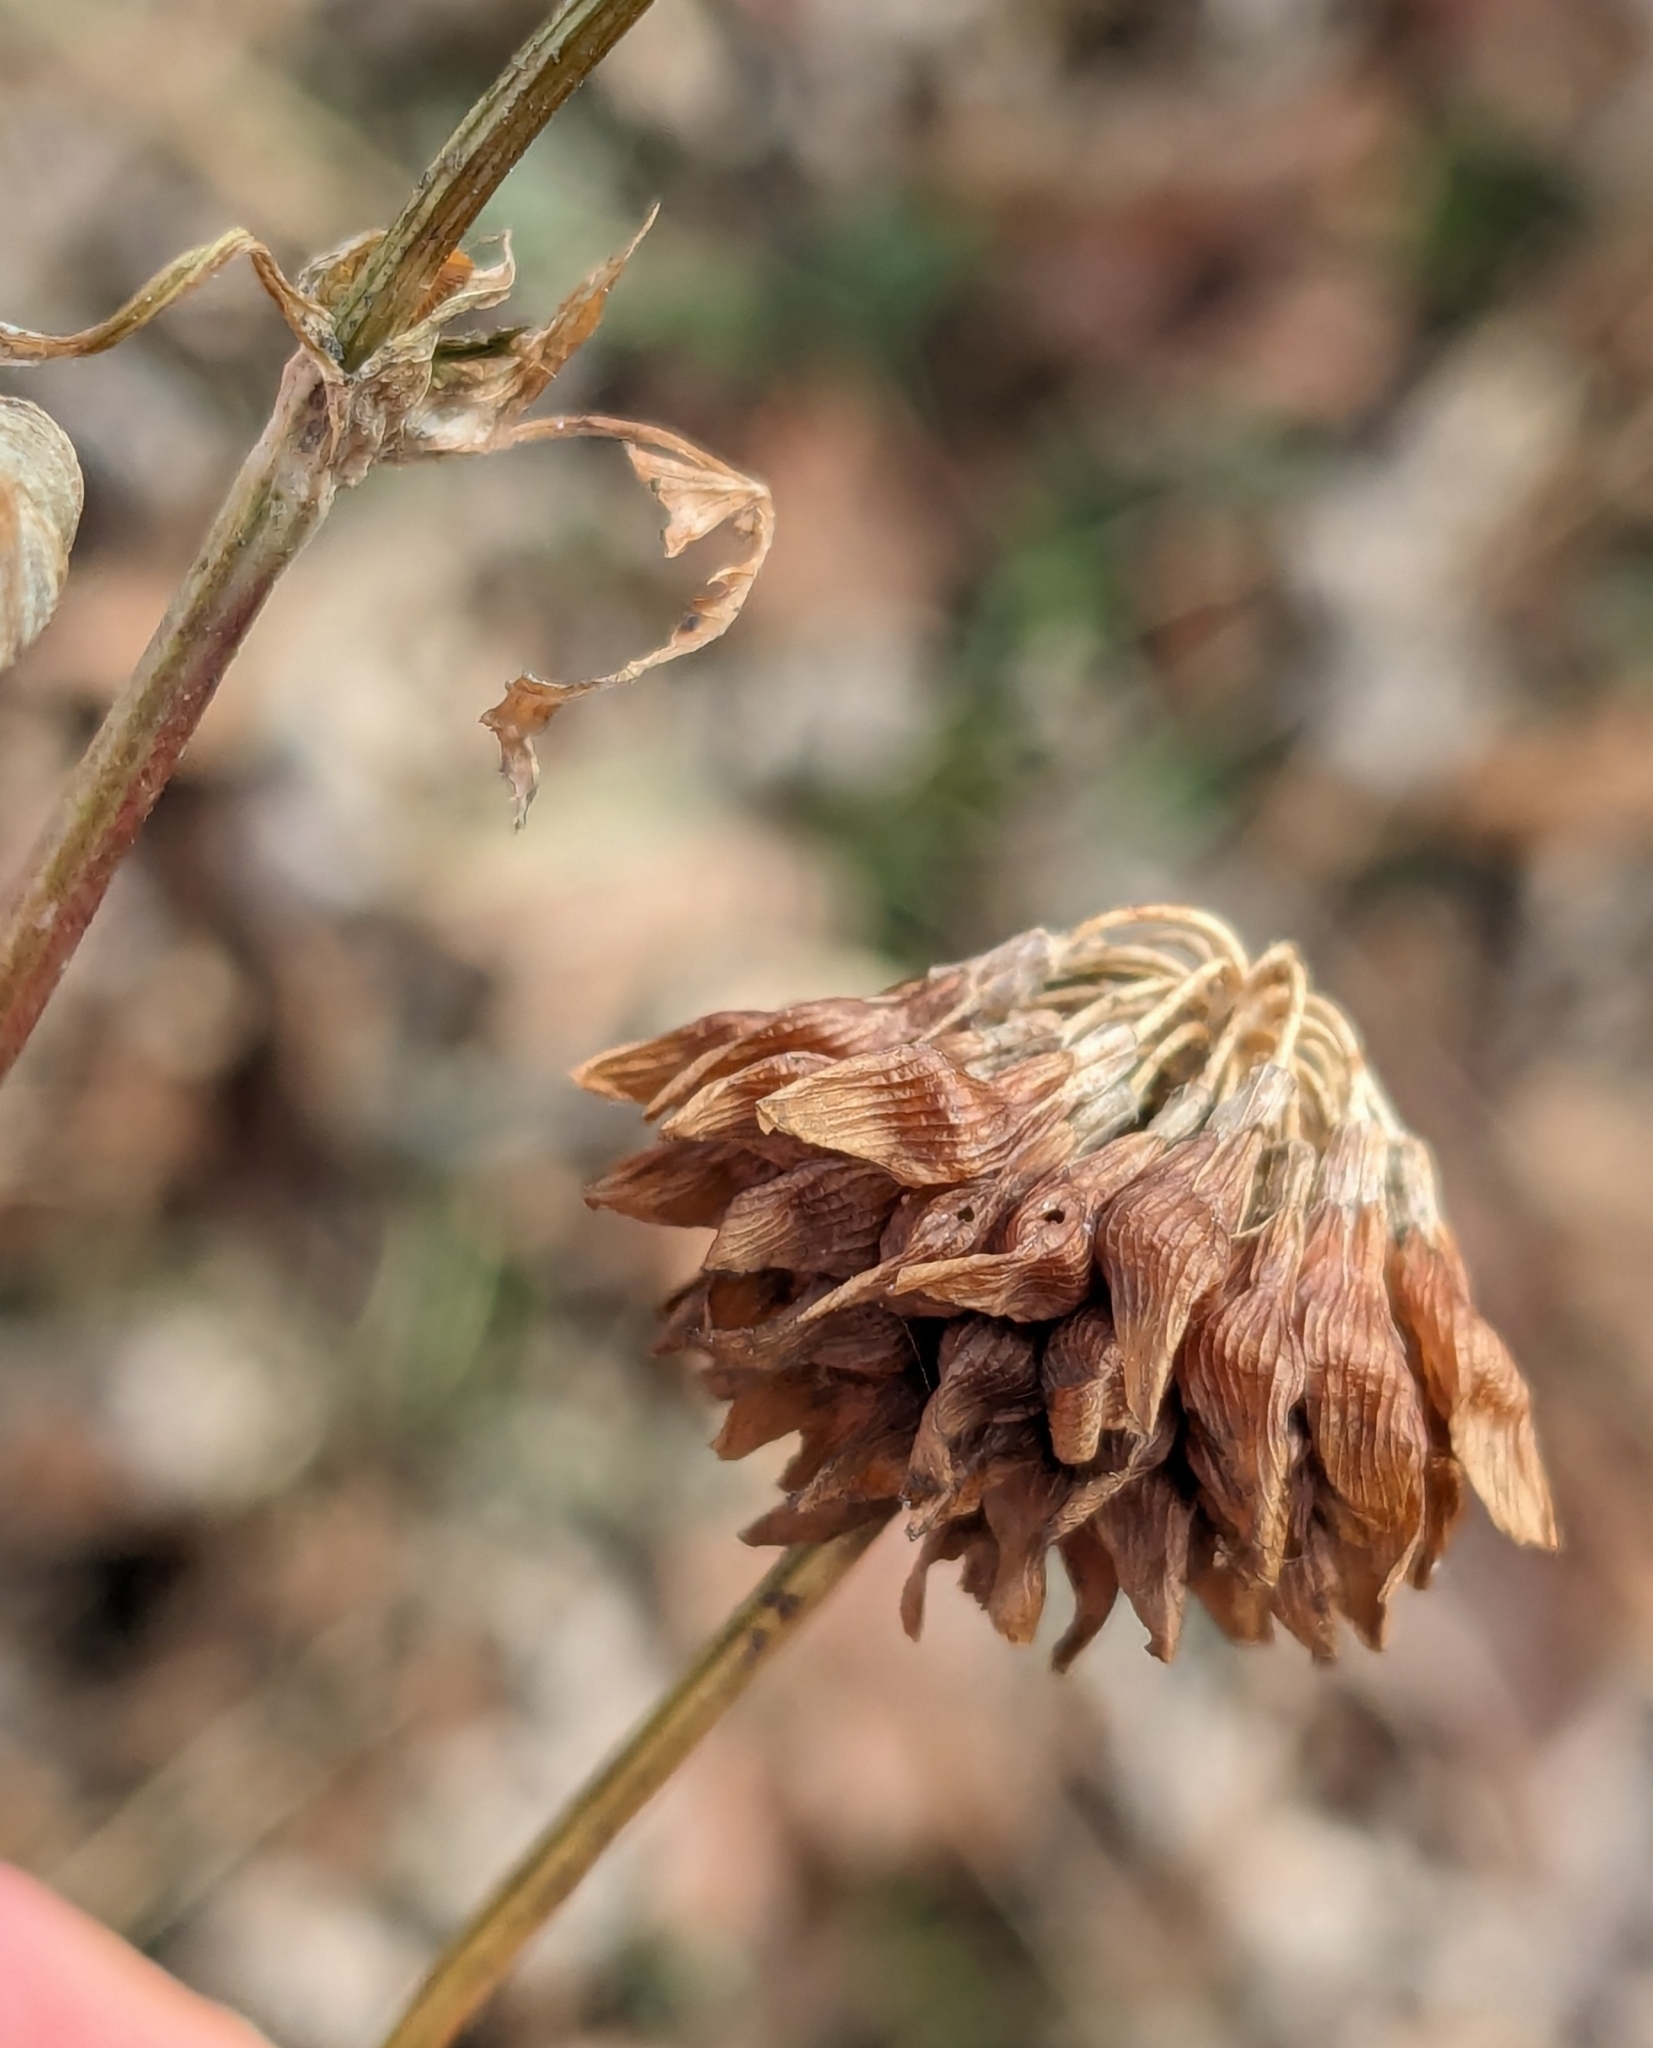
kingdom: Plantae
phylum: Tracheophyta
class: Magnoliopsida
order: Fabales
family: Fabaceae
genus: Trifolium
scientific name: Trifolium hybridum
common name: Alsike clover
